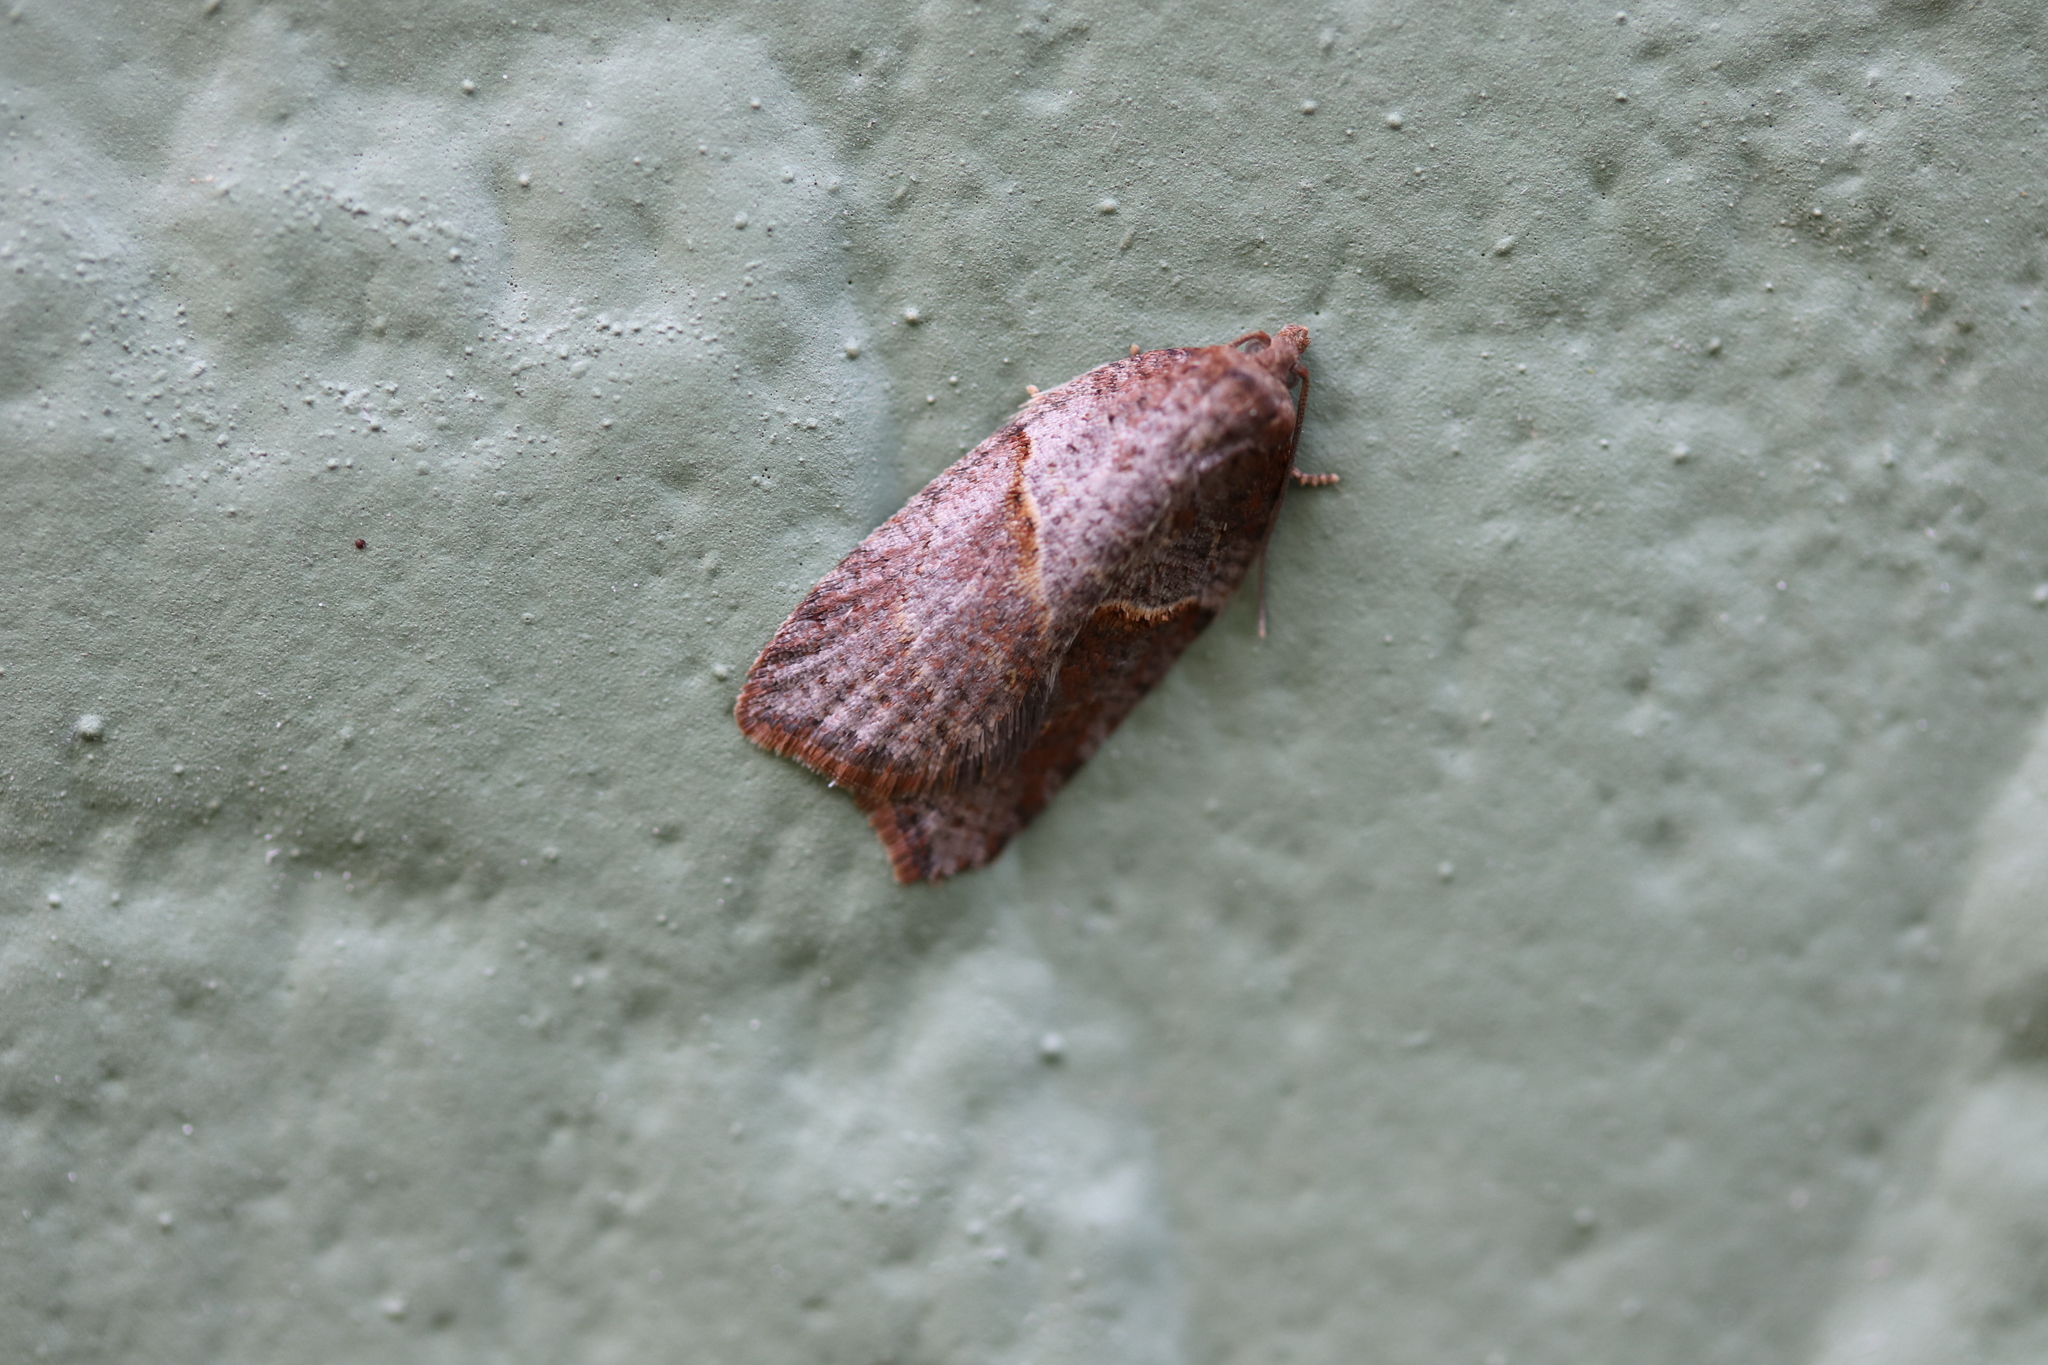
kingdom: Animalia
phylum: Arthropoda
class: Insecta
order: Lepidoptera
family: Tortricidae
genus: Acleris
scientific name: Acleris maccana
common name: Marbled button
